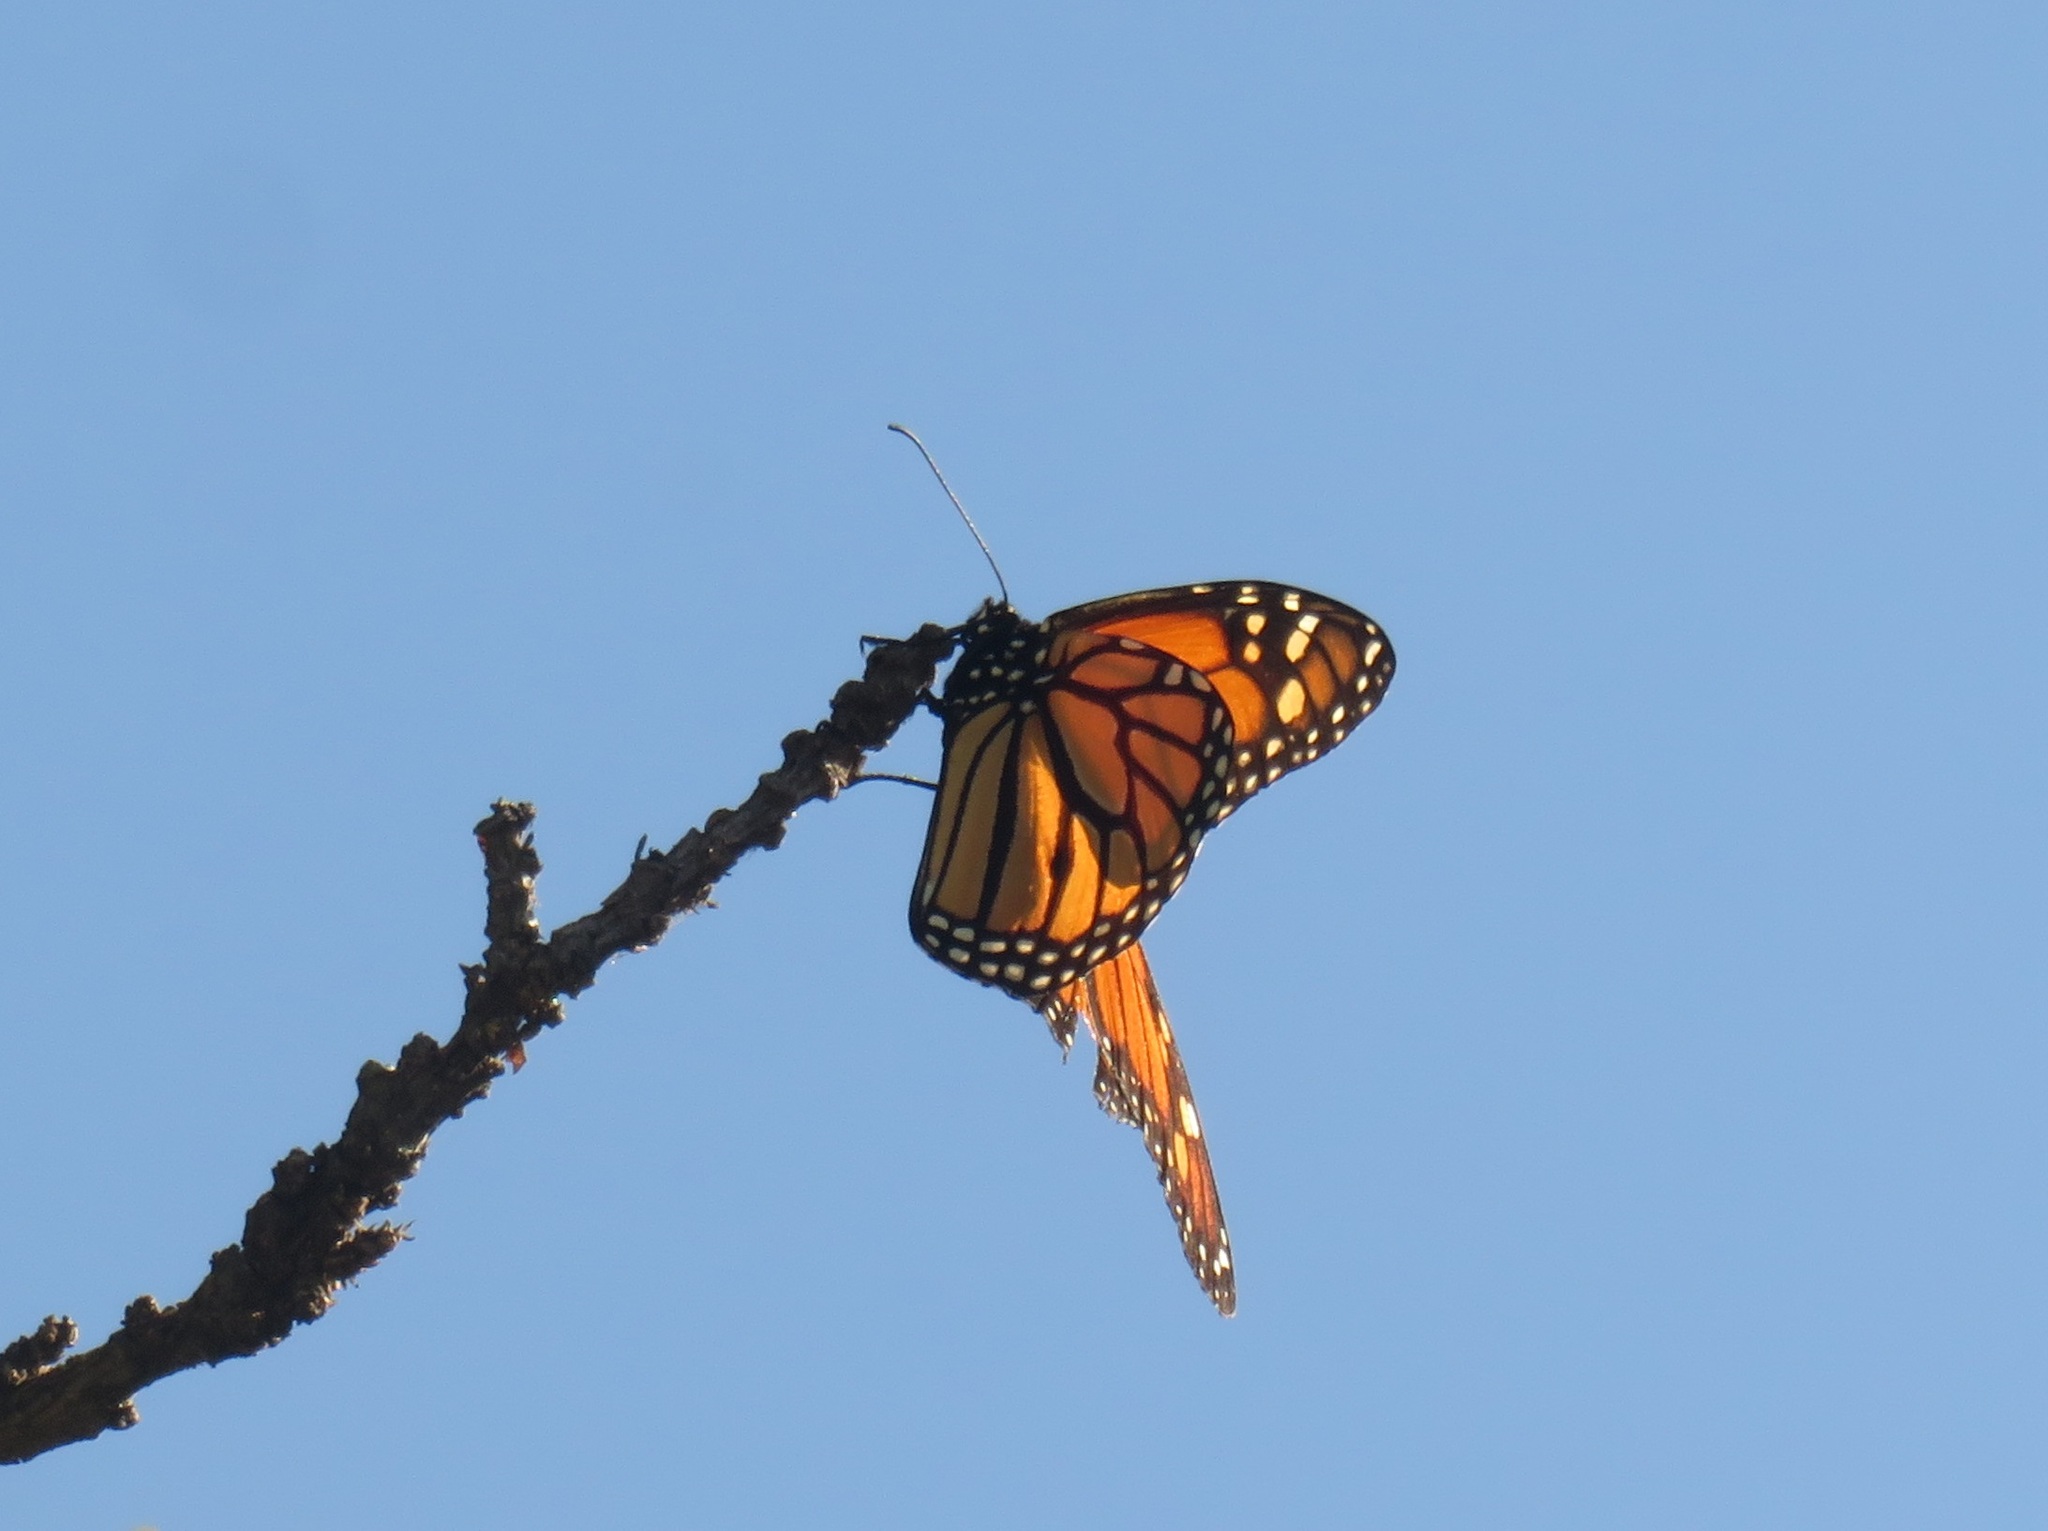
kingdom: Animalia
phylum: Arthropoda
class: Insecta
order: Lepidoptera
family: Nymphalidae
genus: Danaus
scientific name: Danaus plexippus
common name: Monarch
